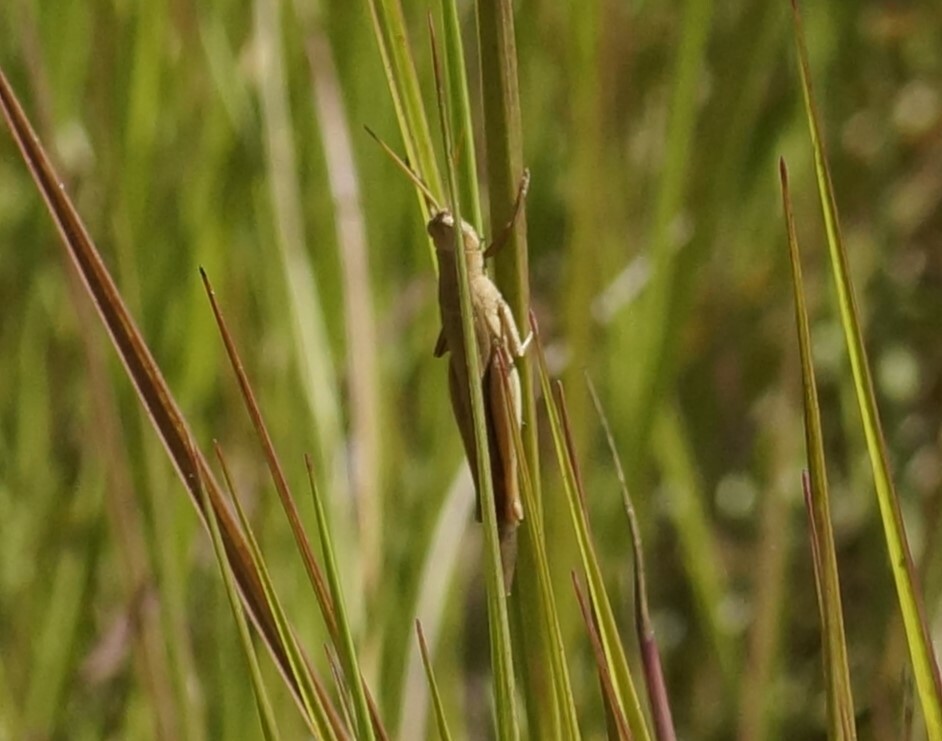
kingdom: Animalia
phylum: Arthropoda
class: Insecta
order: Orthoptera
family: Acrididae
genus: Stenocatantops
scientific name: Stenocatantops vitripennis
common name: Light-brown sharptail
